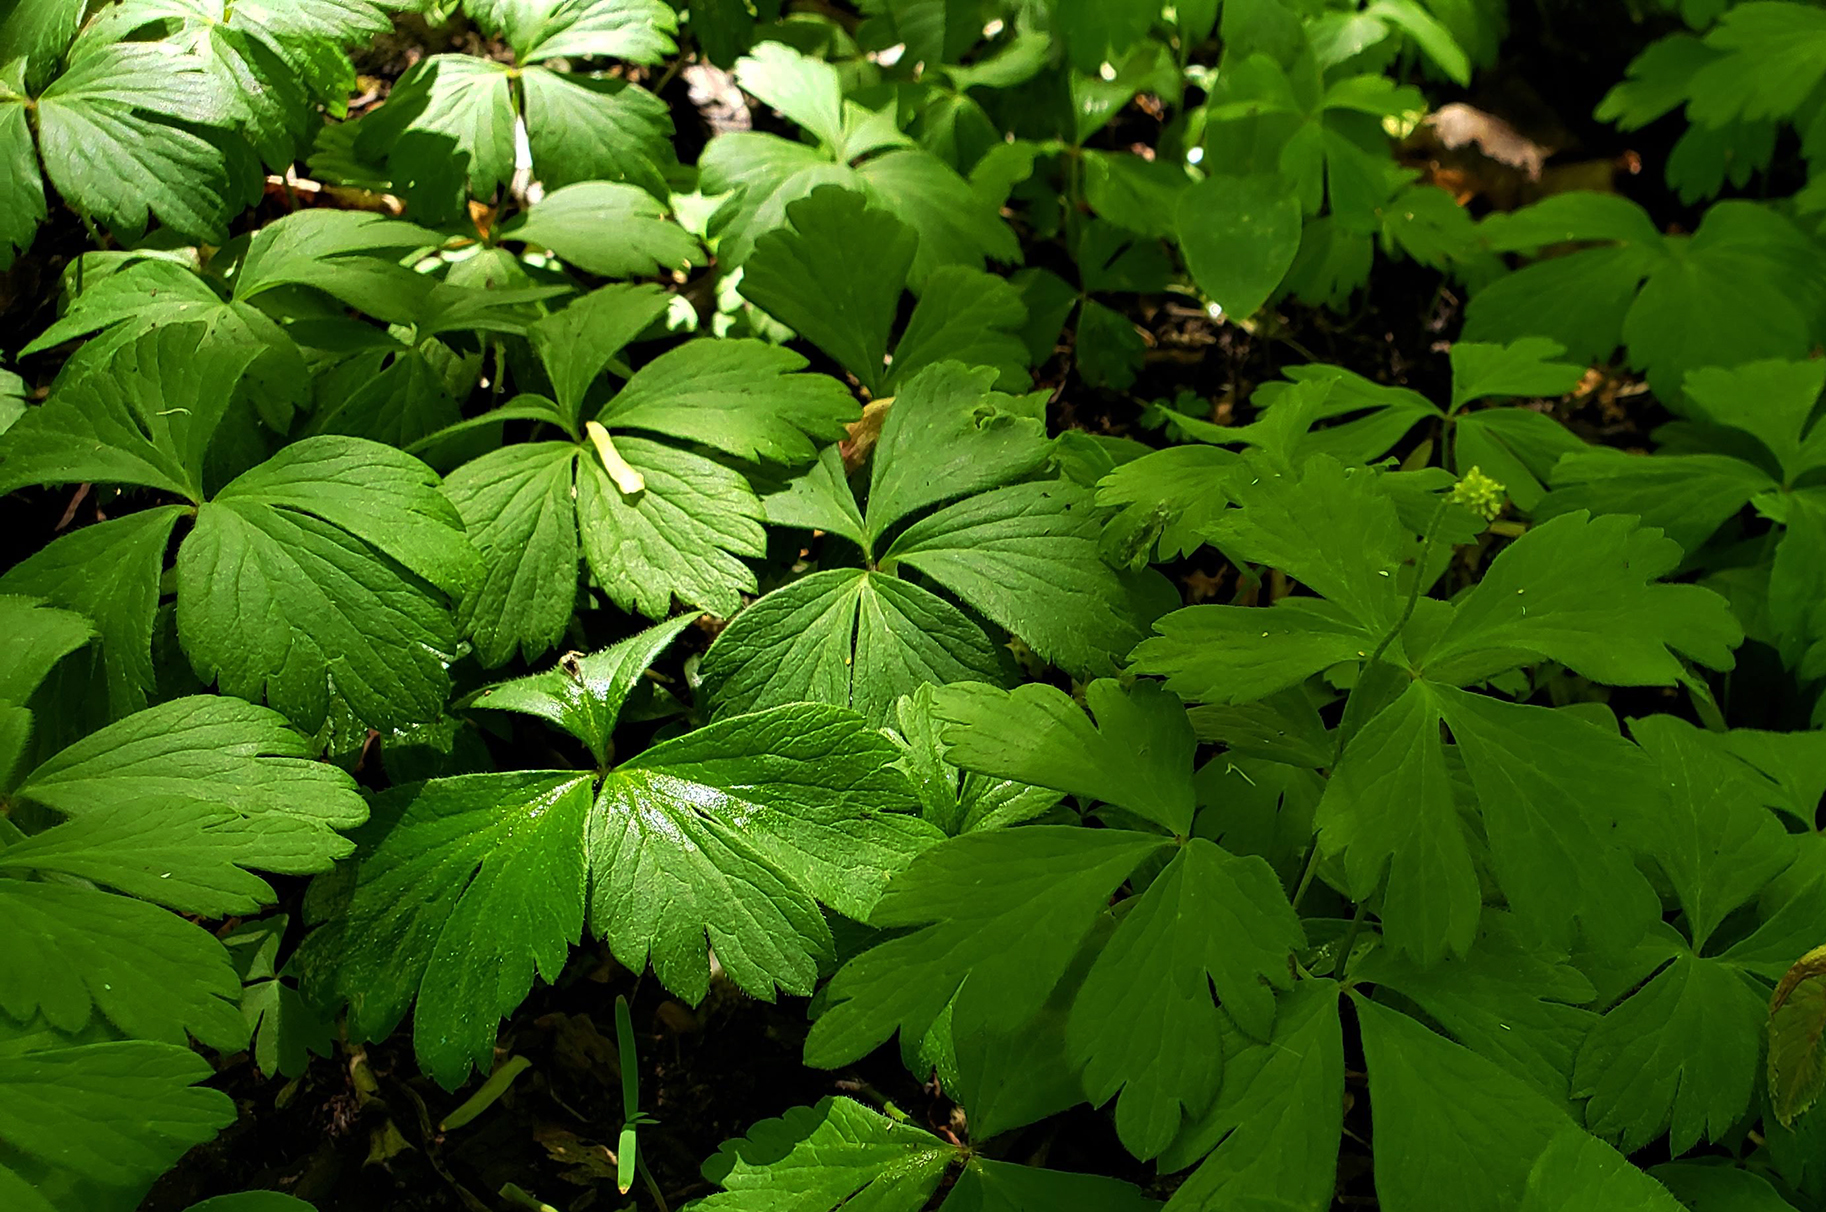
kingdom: Plantae
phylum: Tracheophyta
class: Magnoliopsida
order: Ranunculales
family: Ranunculaceae
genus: Anemone
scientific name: Anemone quinquefolia
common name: Wood anemone
